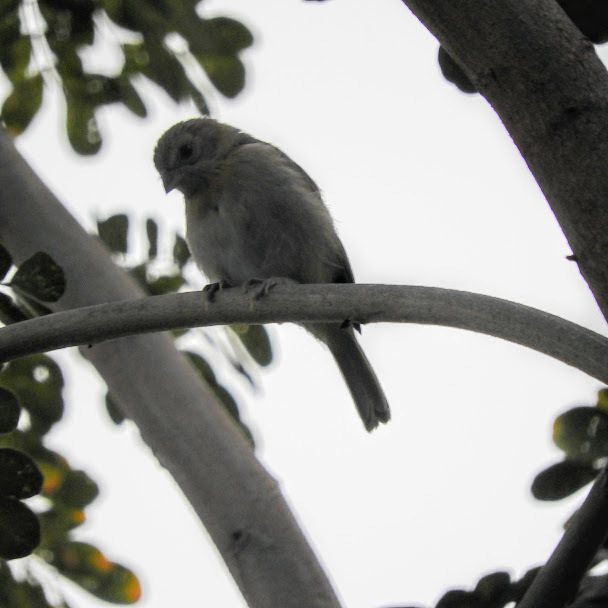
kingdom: Animalia
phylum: Chordata
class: Aves
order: Passeriformes
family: Thraupidae
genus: Sicalis
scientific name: Sicalis flaveola
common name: Saffron finch
